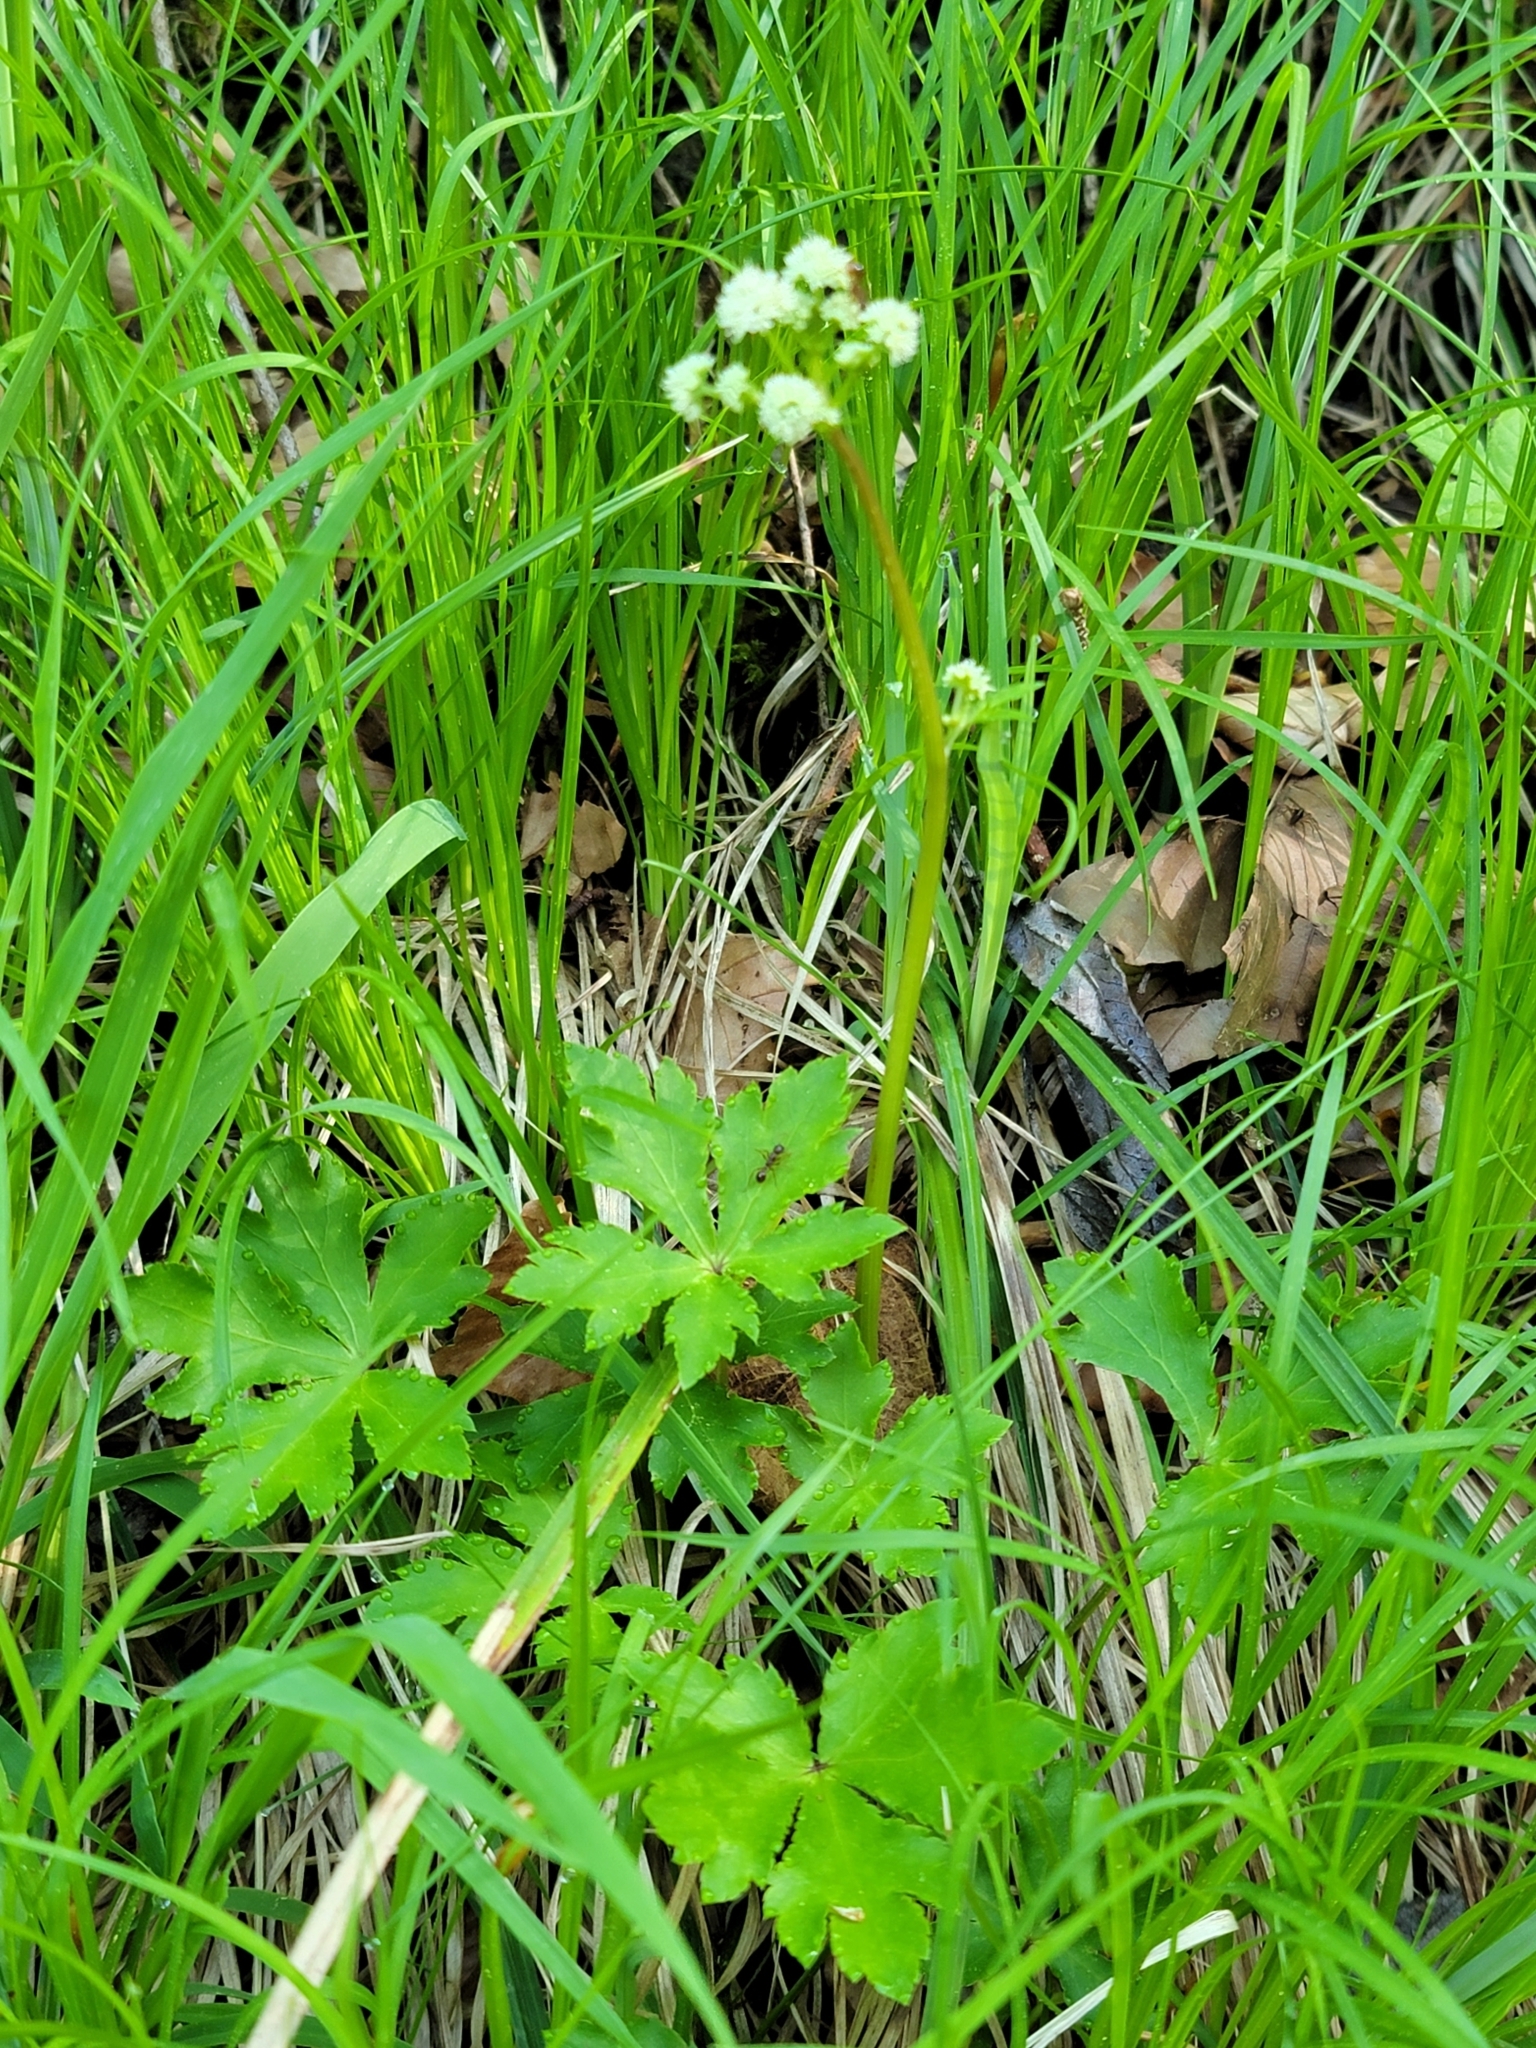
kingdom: Plantae
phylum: Tracheophyta
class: Magnoliopsida
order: Apiales
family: Apiaceae
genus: Sanicula
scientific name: Sanicula europaea
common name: Sanicle
